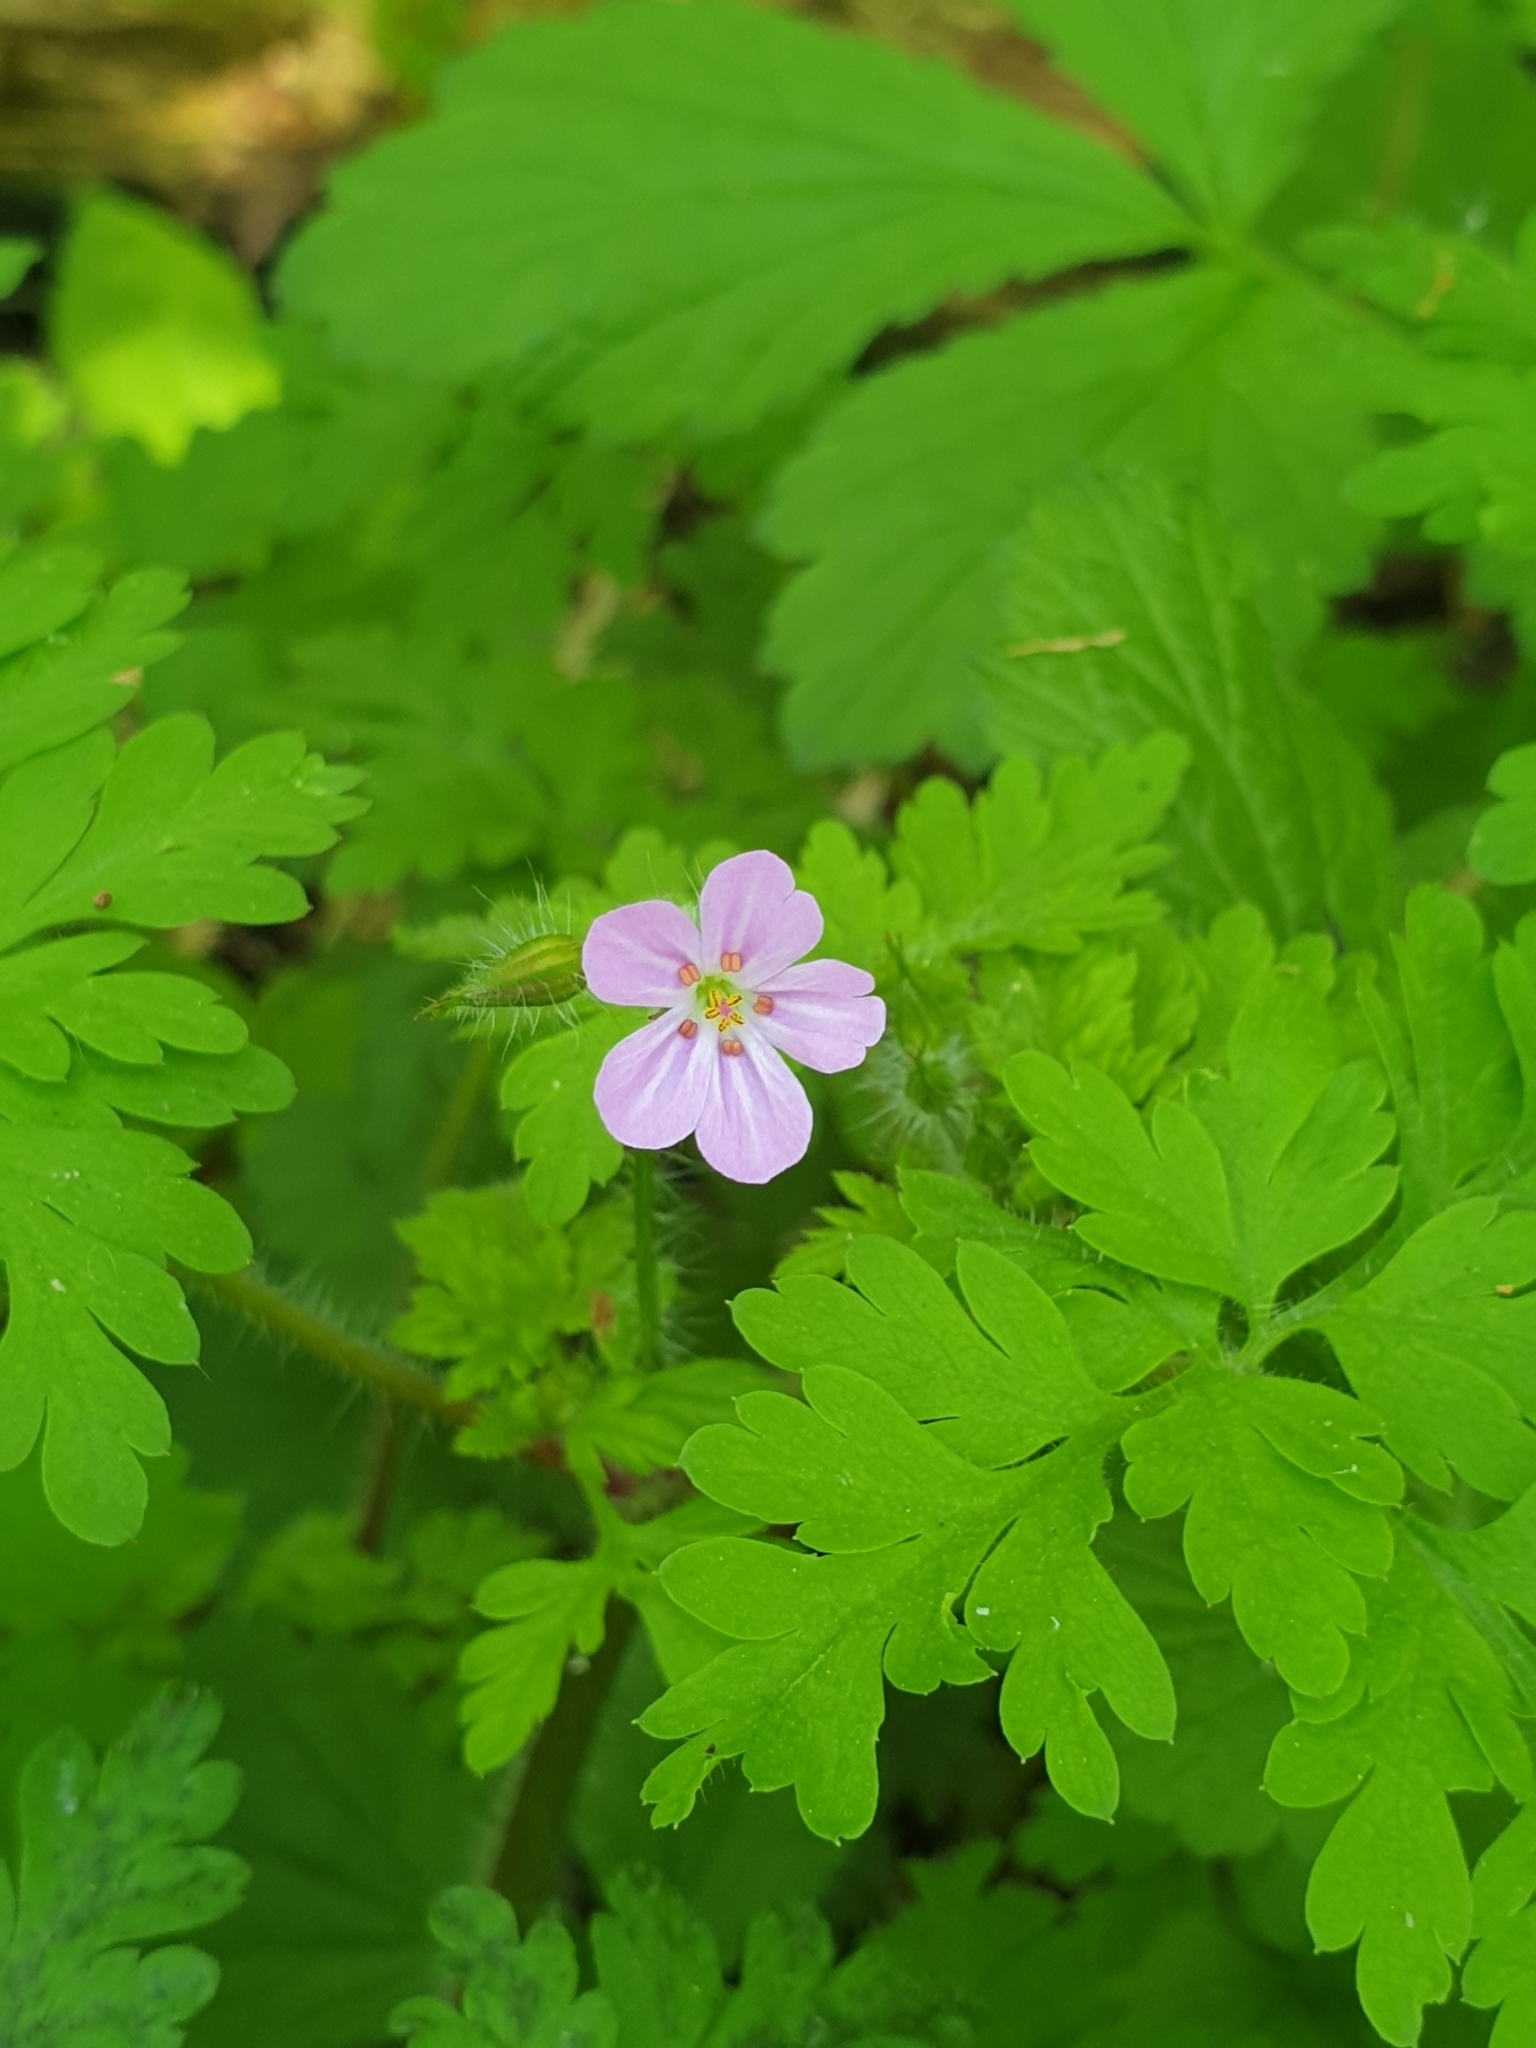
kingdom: Plantae
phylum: Tracheophyta
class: Magnoliopsida
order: Geraniales
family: Geraniaceae
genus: Geranium
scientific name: Geranium robertianum
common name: Herb-robert
